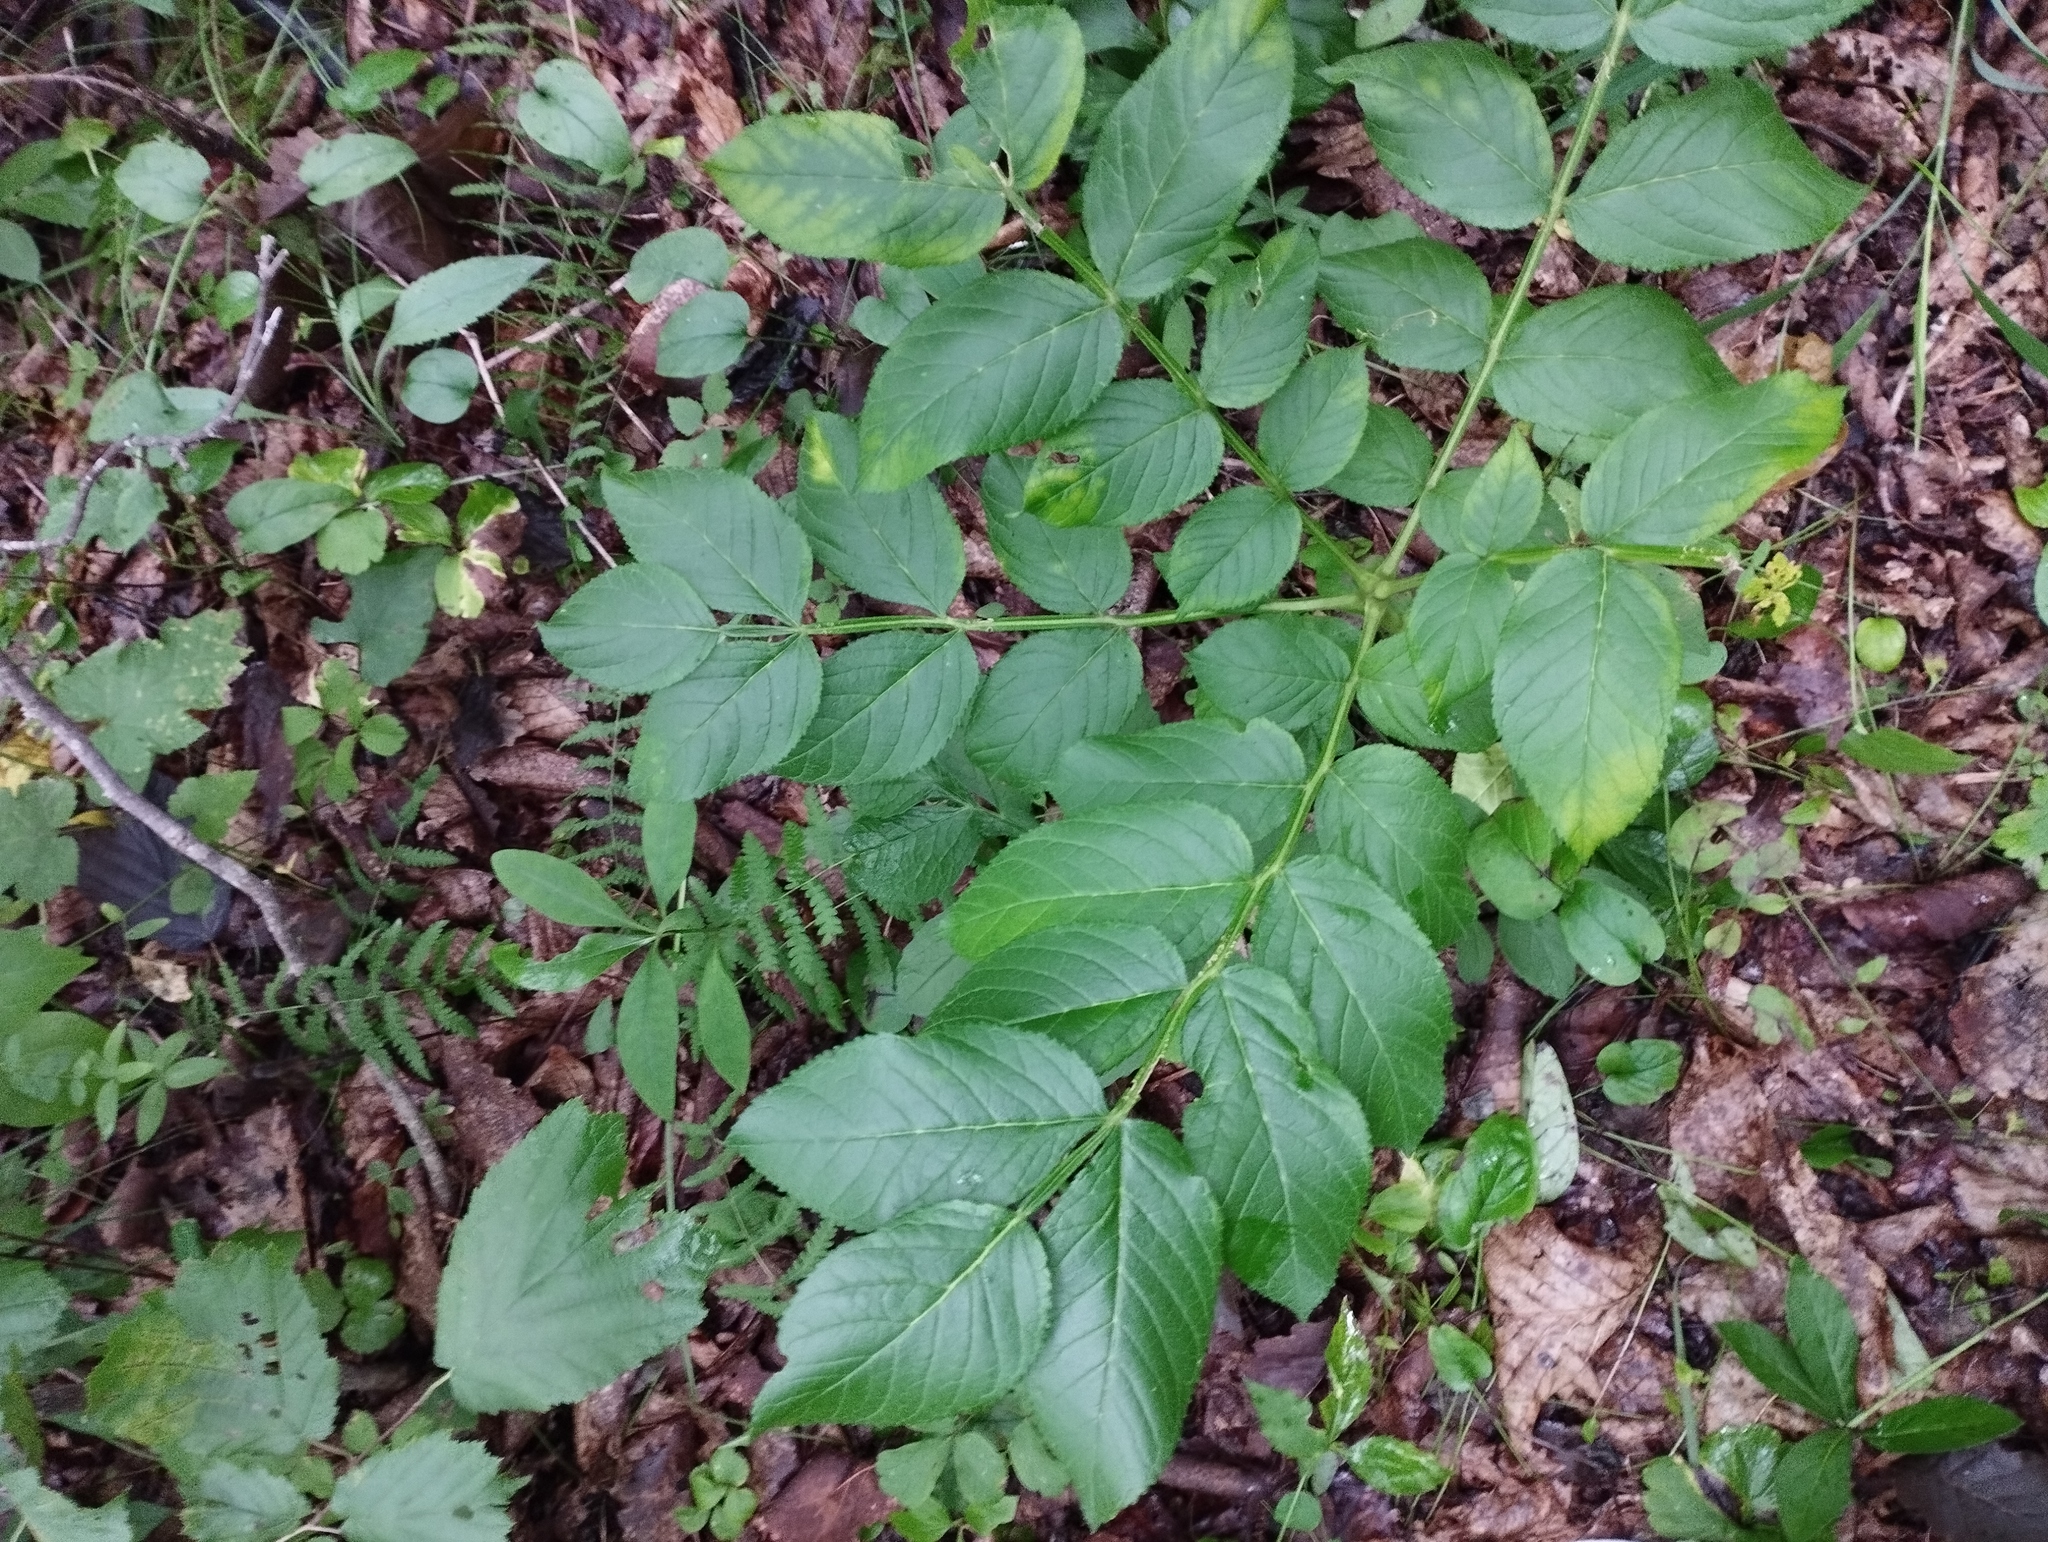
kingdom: Plantae
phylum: Tracheophyta
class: Magnoliopsida
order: Sapindales
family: Rutaceae
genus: Dictamnus
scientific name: Dictamnus dasycarpus
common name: Dense-fruit dittany
